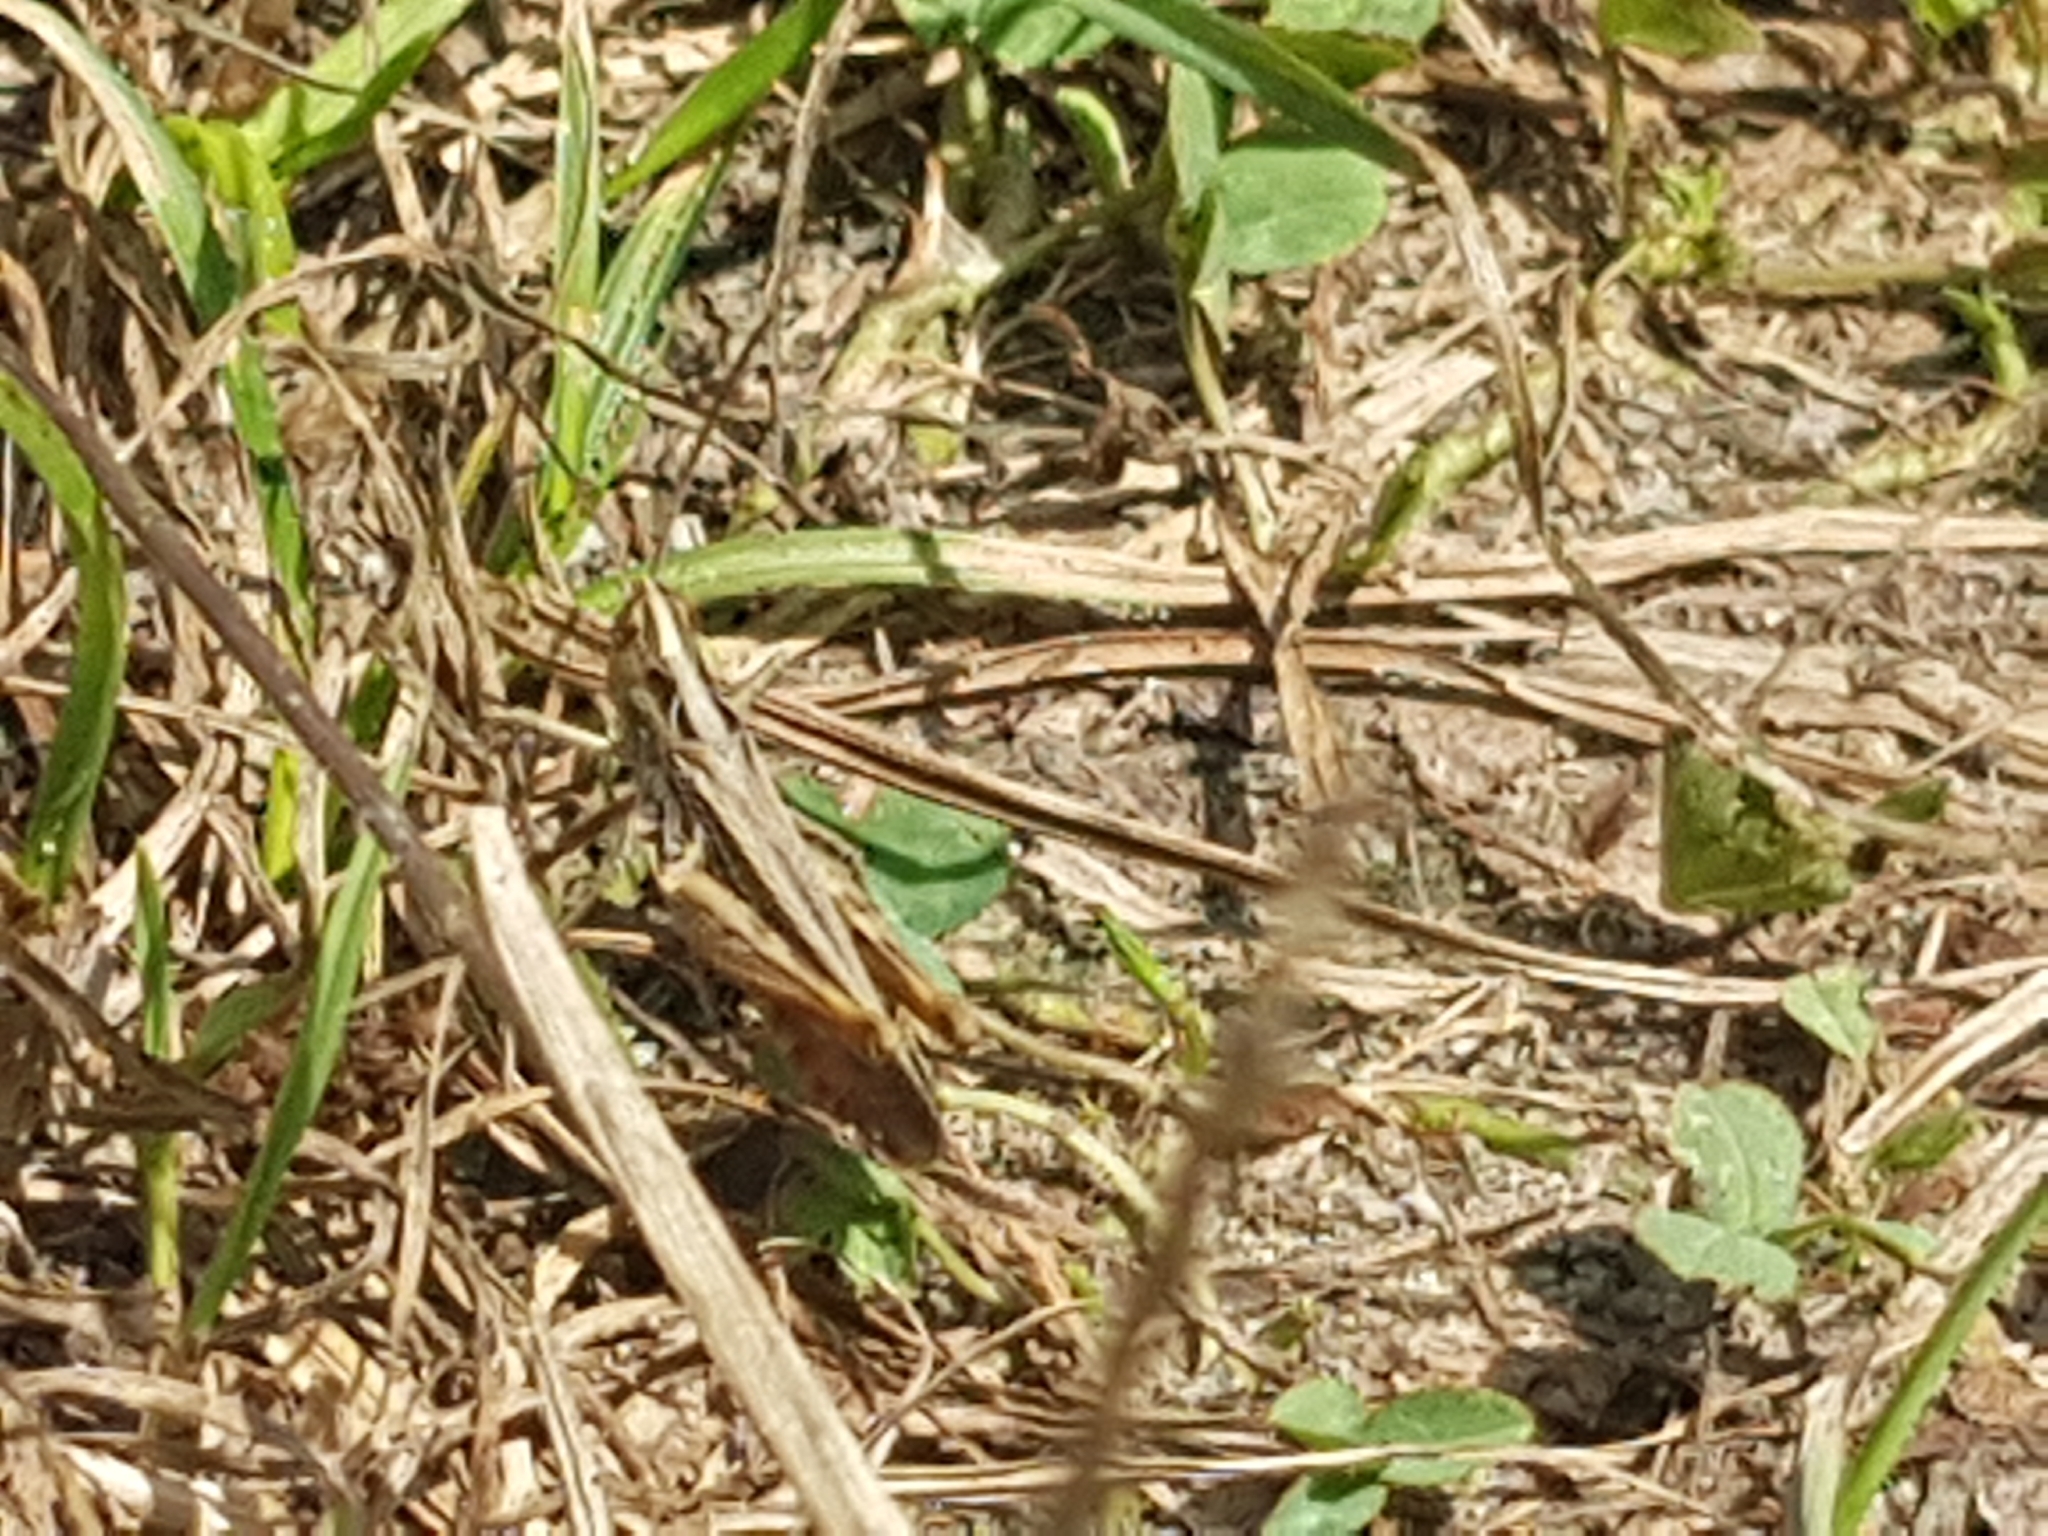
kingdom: Animalia
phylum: Arthropoda
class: Insecta
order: Orthoptera
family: Acrididae
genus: Chorthippus
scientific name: Chorthippus biguttulus
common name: Bow-winged grasshopper
